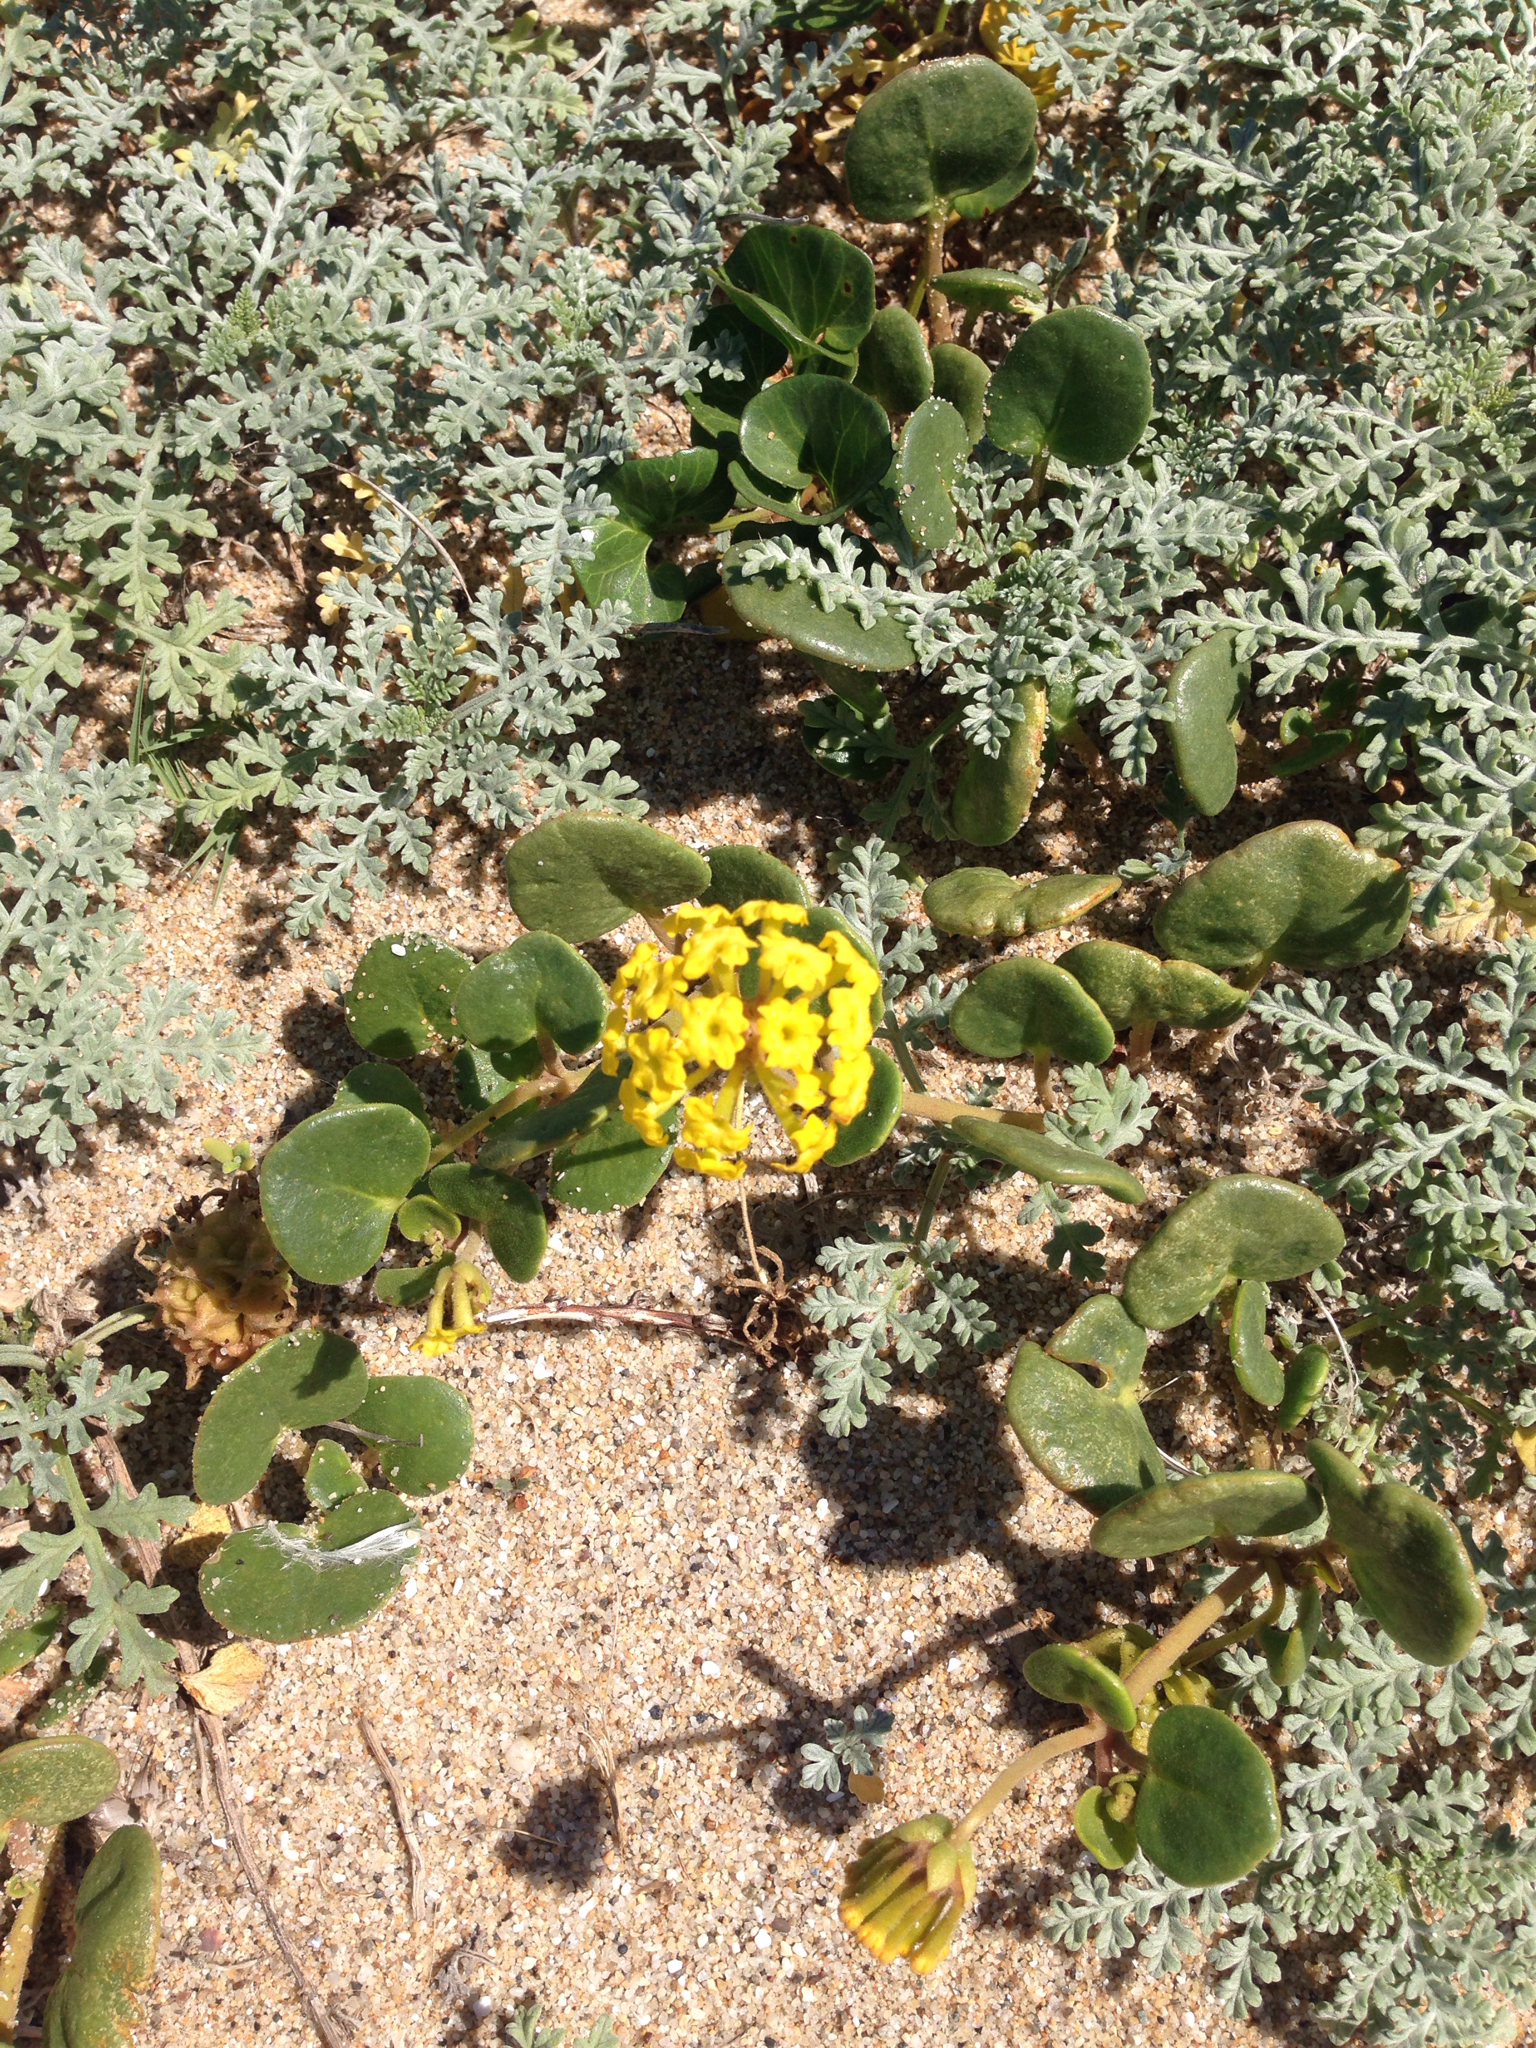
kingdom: Plantae
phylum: Tracheophyta
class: Magnoliopsida
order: Caryophyllales
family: Nyctaginaceae
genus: Abronia
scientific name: Abronia latifolia
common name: Yellow sand-verbena
